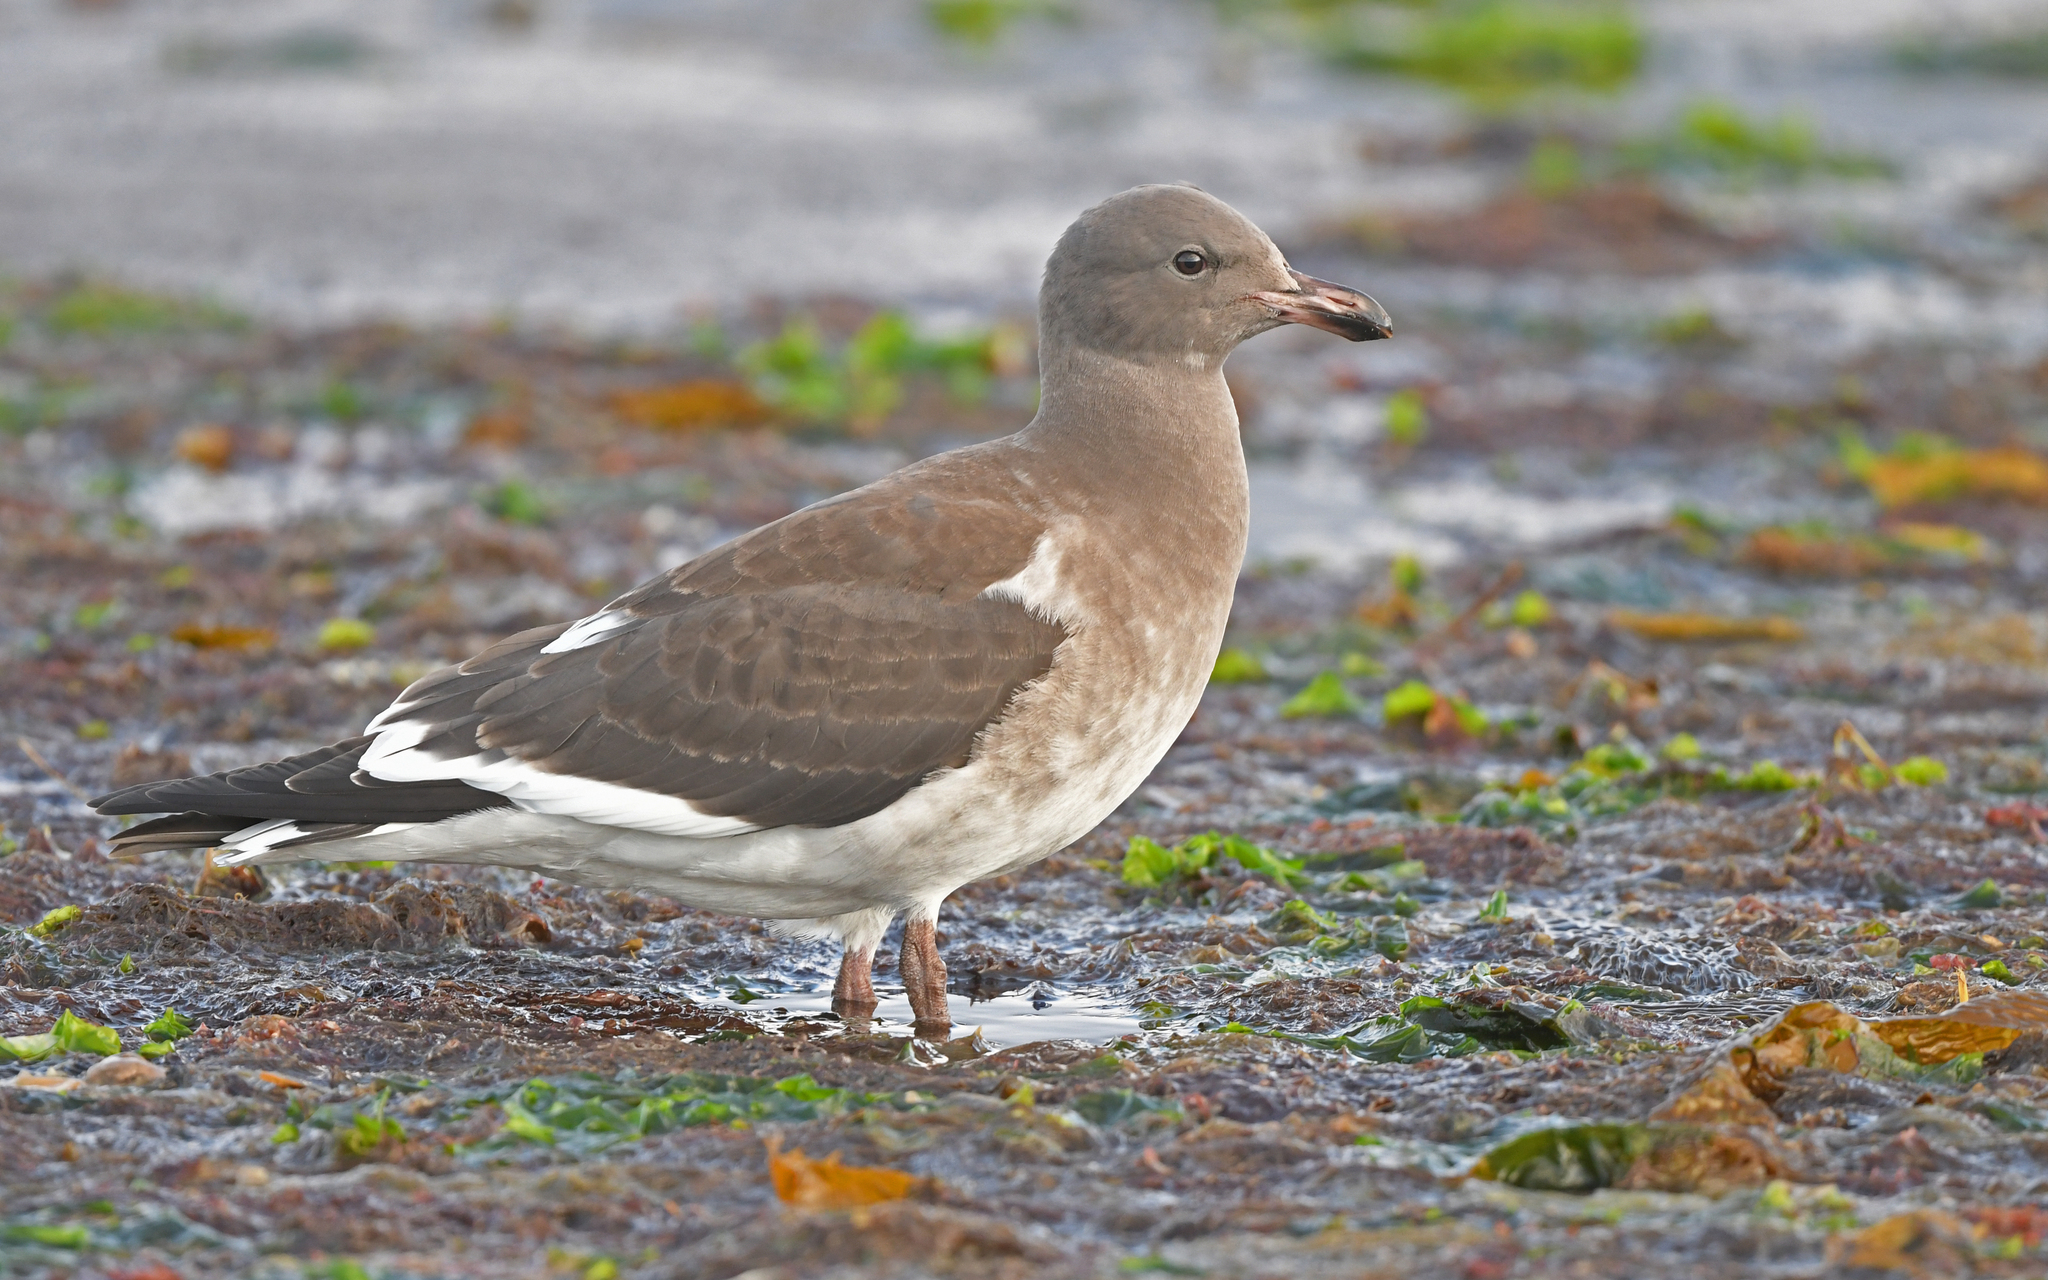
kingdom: Animalia
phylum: Chordata
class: Aves
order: Charadriiformes
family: Laridae
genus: Leucophaeus
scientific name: Leucophaeus scoresbii
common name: Dolphin gull
